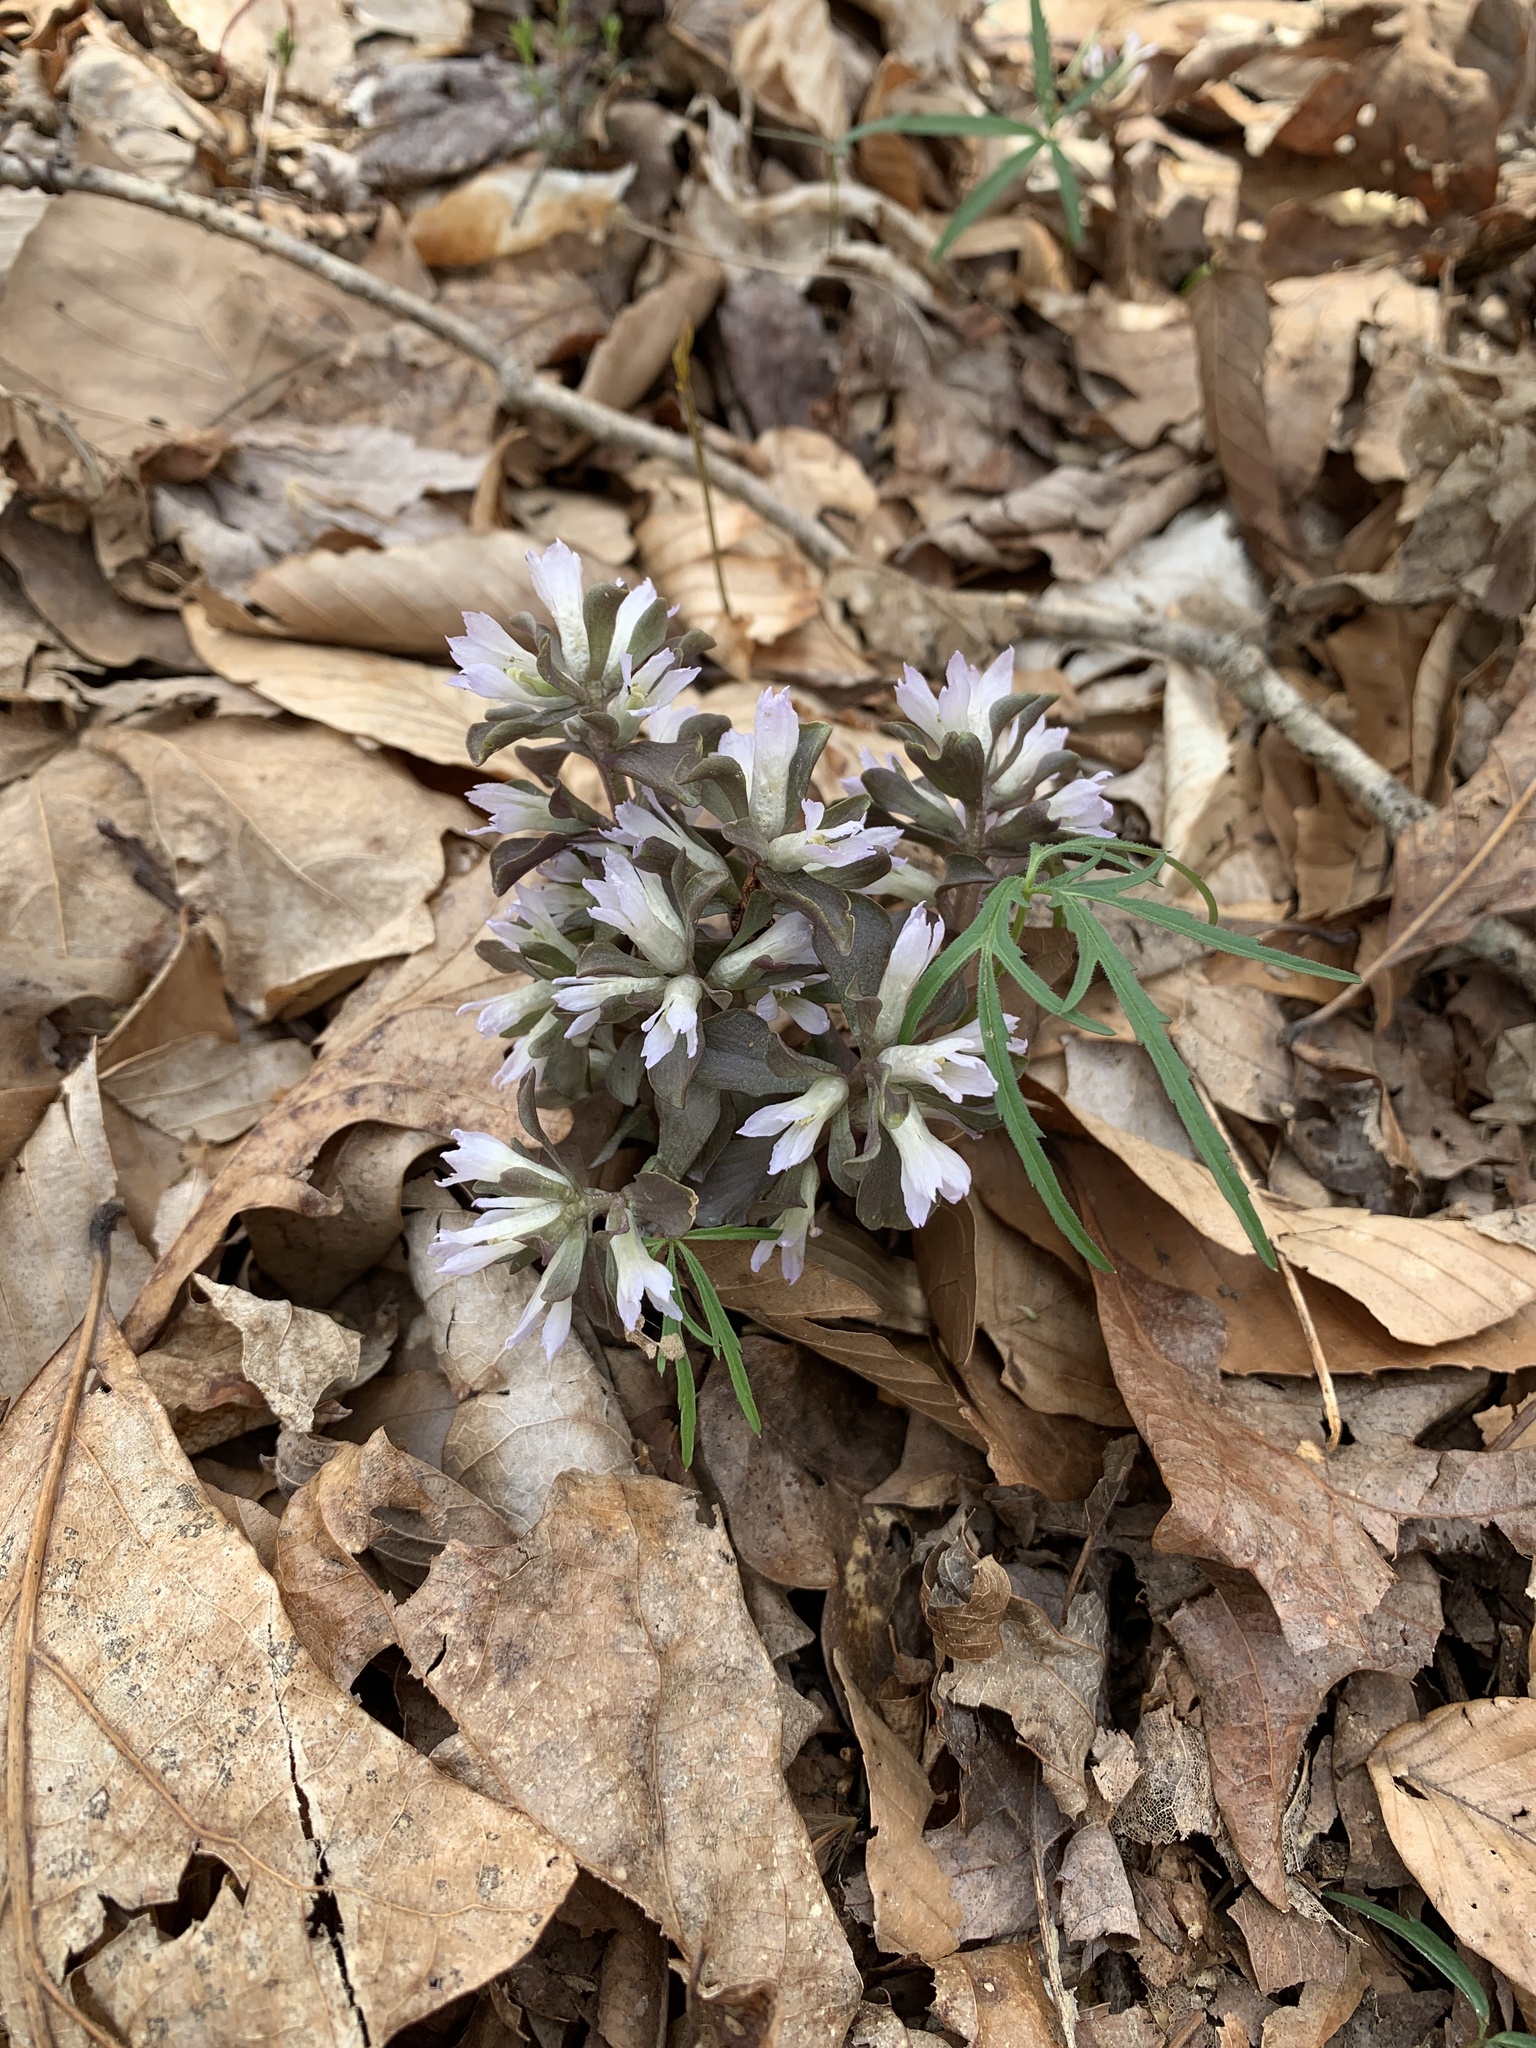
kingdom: Plantae
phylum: Tracheophyta
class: Magnoliopsida
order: Gentianales
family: Gentianaceae
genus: Obolaria
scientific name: Obolaria virginica
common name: Pennywort
